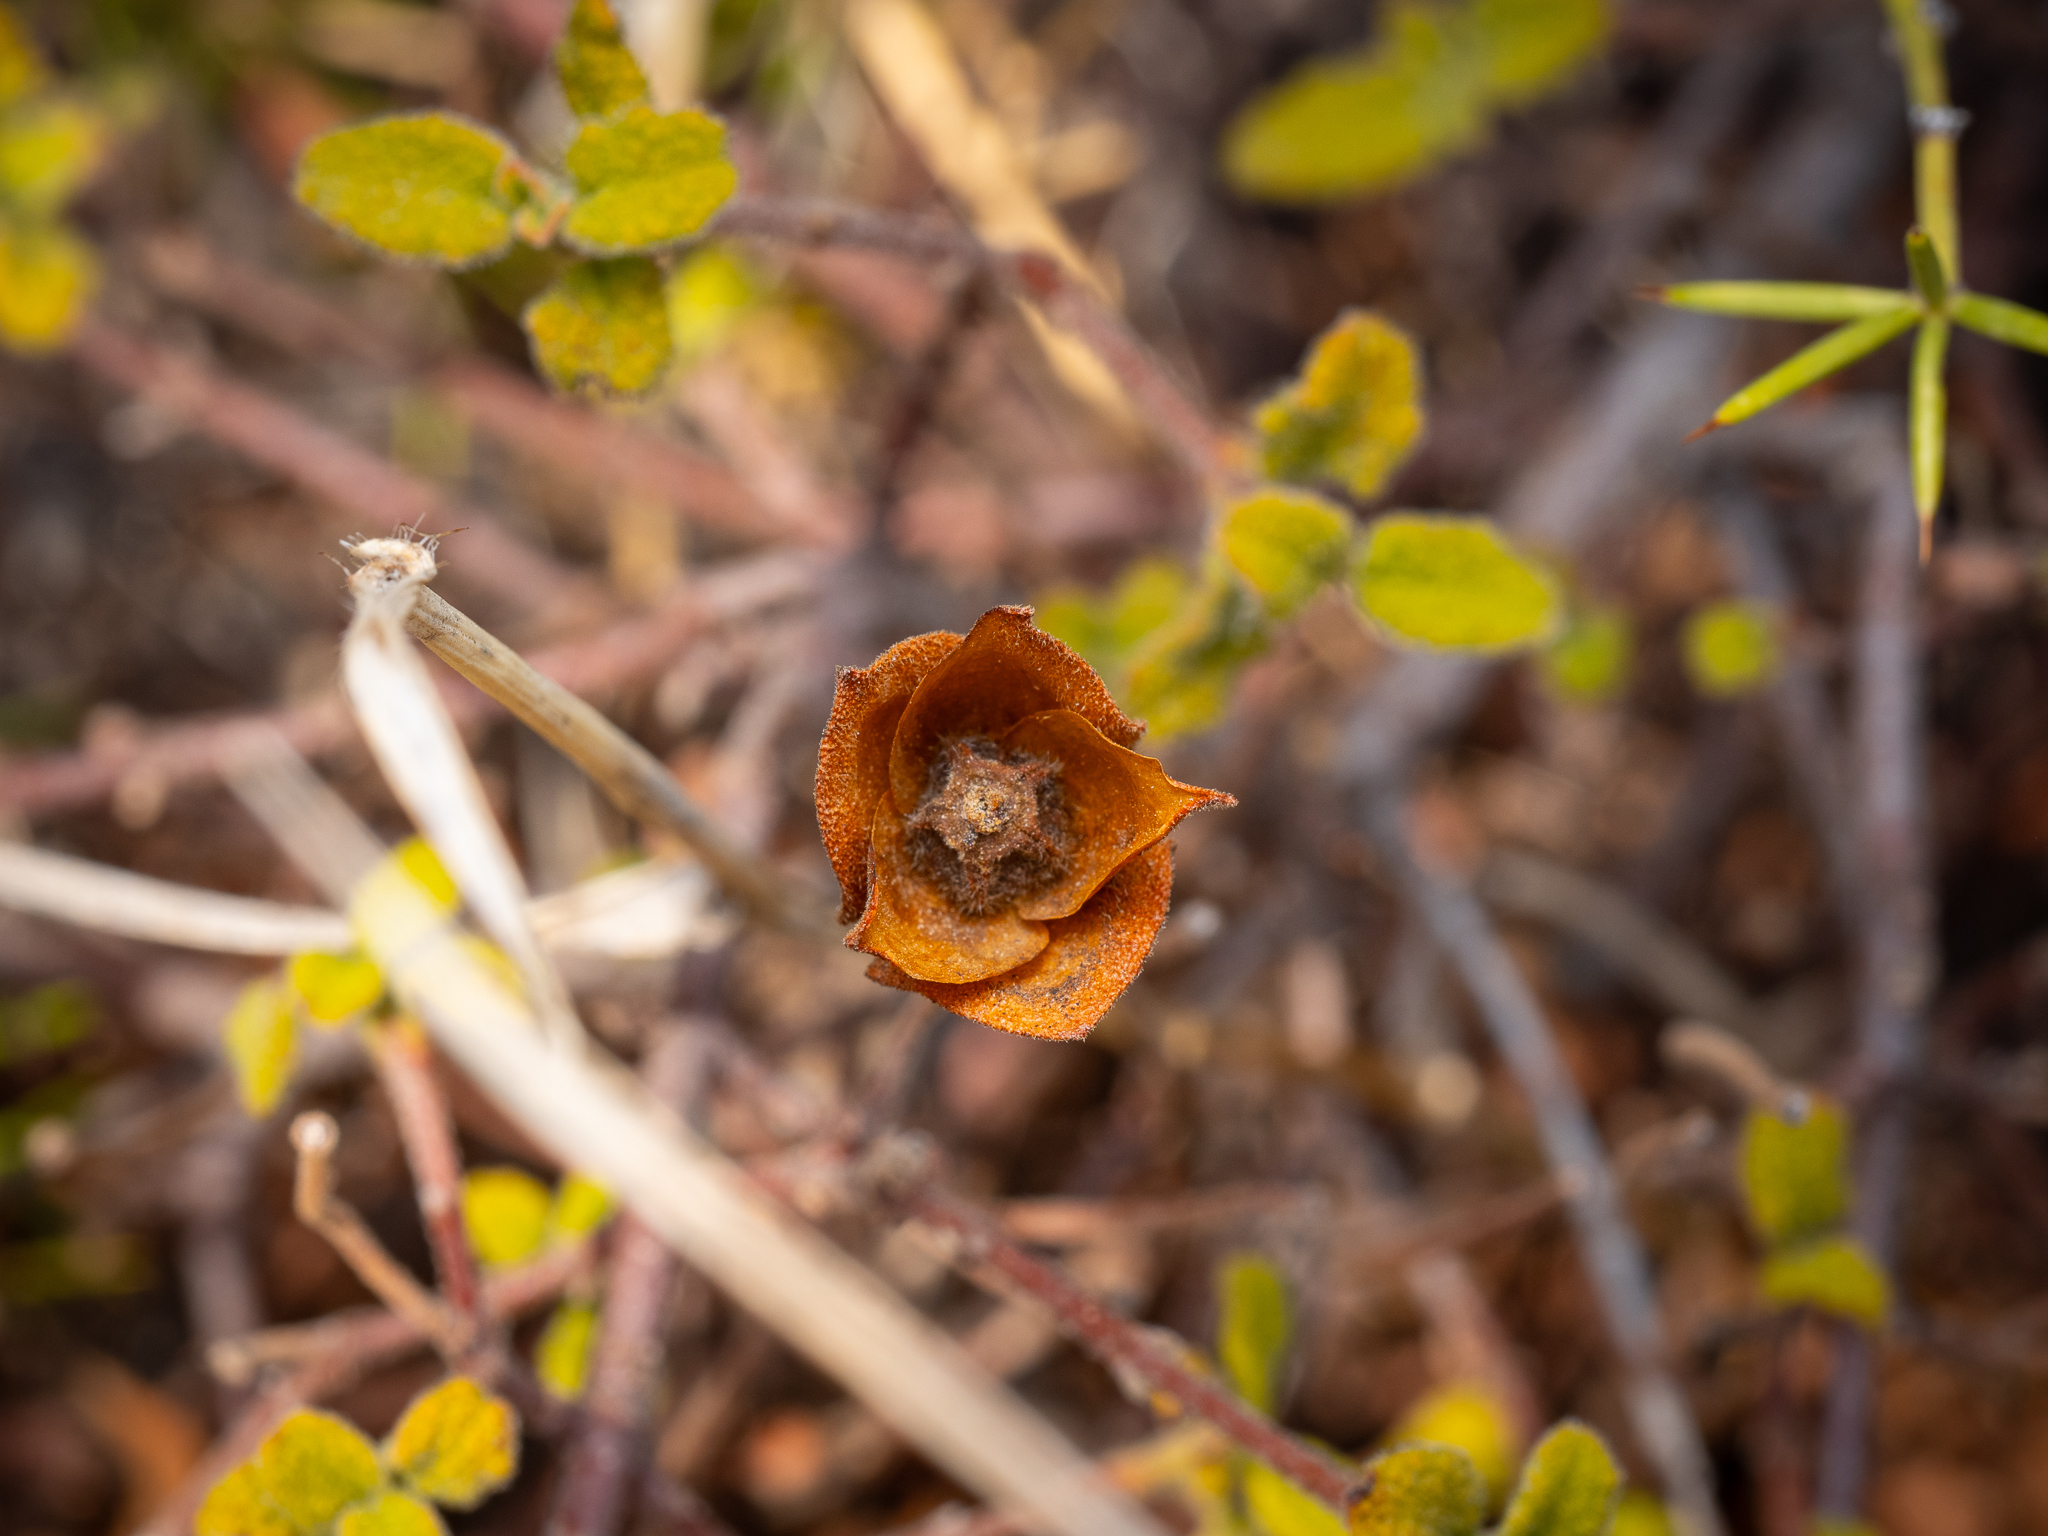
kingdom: Plantae
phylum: Tracheophyta
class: Magnoliopsida
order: Malvales
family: Cistaceae
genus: Cistus
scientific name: Cistus salviifolius
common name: Salvia cistus
